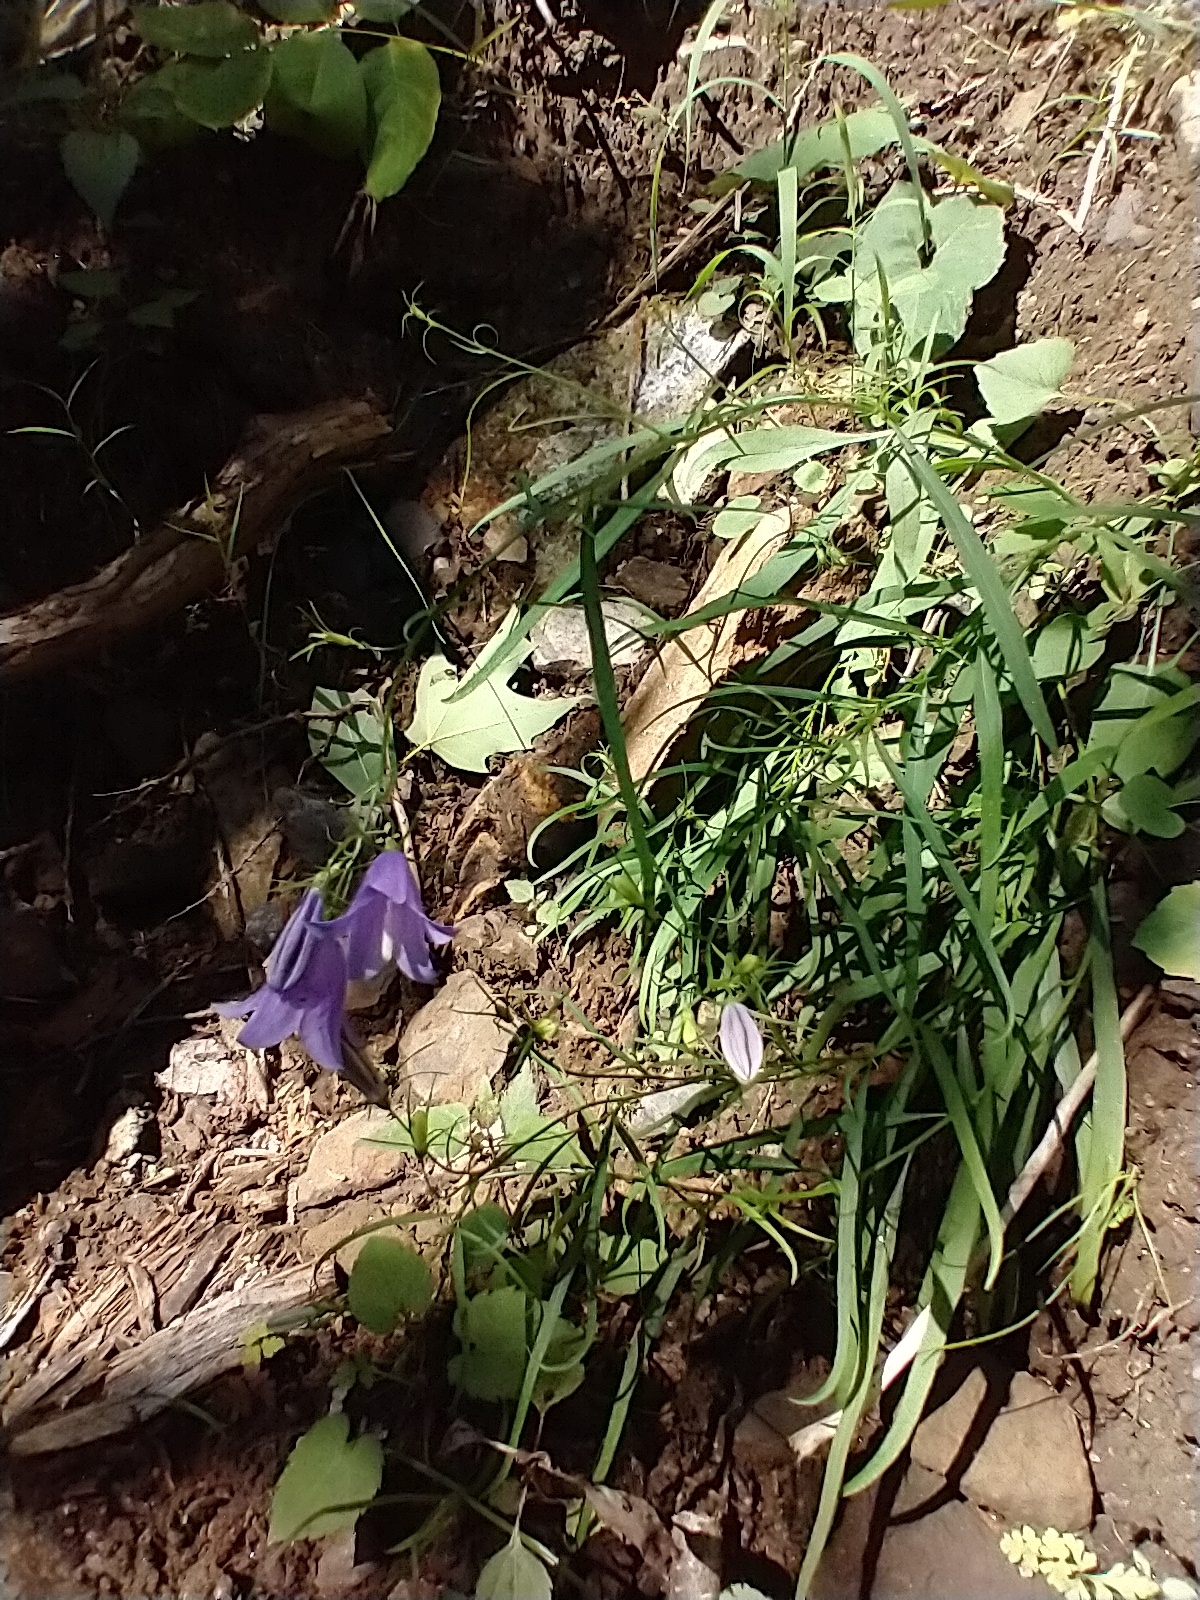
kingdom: Plantae
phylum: Tracheophyta
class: Magnoliopsida
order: Asterales
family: Campanulaceae
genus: Campanula
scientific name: Campanula intercedens
